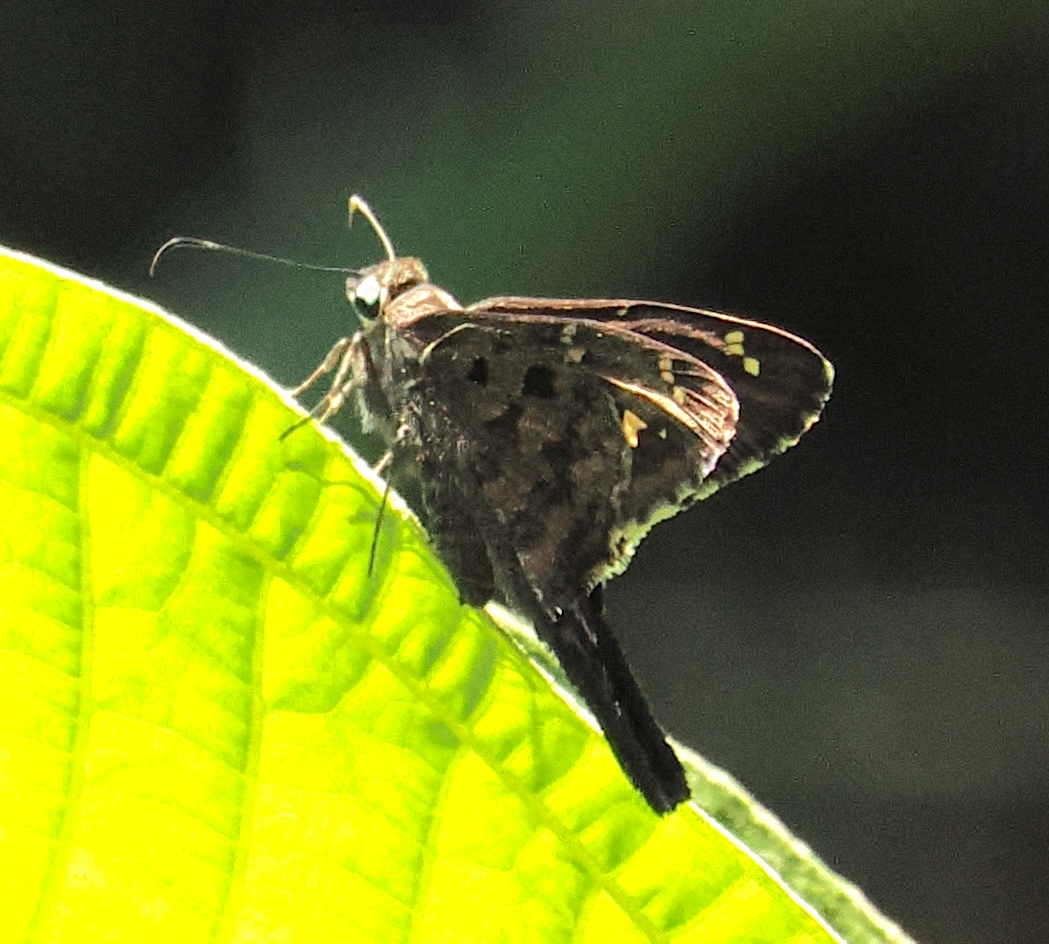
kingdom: Animalia
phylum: Arthropoda
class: Insecta
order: Lepidoptera
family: Hesperiidae
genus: Thorybes
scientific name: Thorybes
